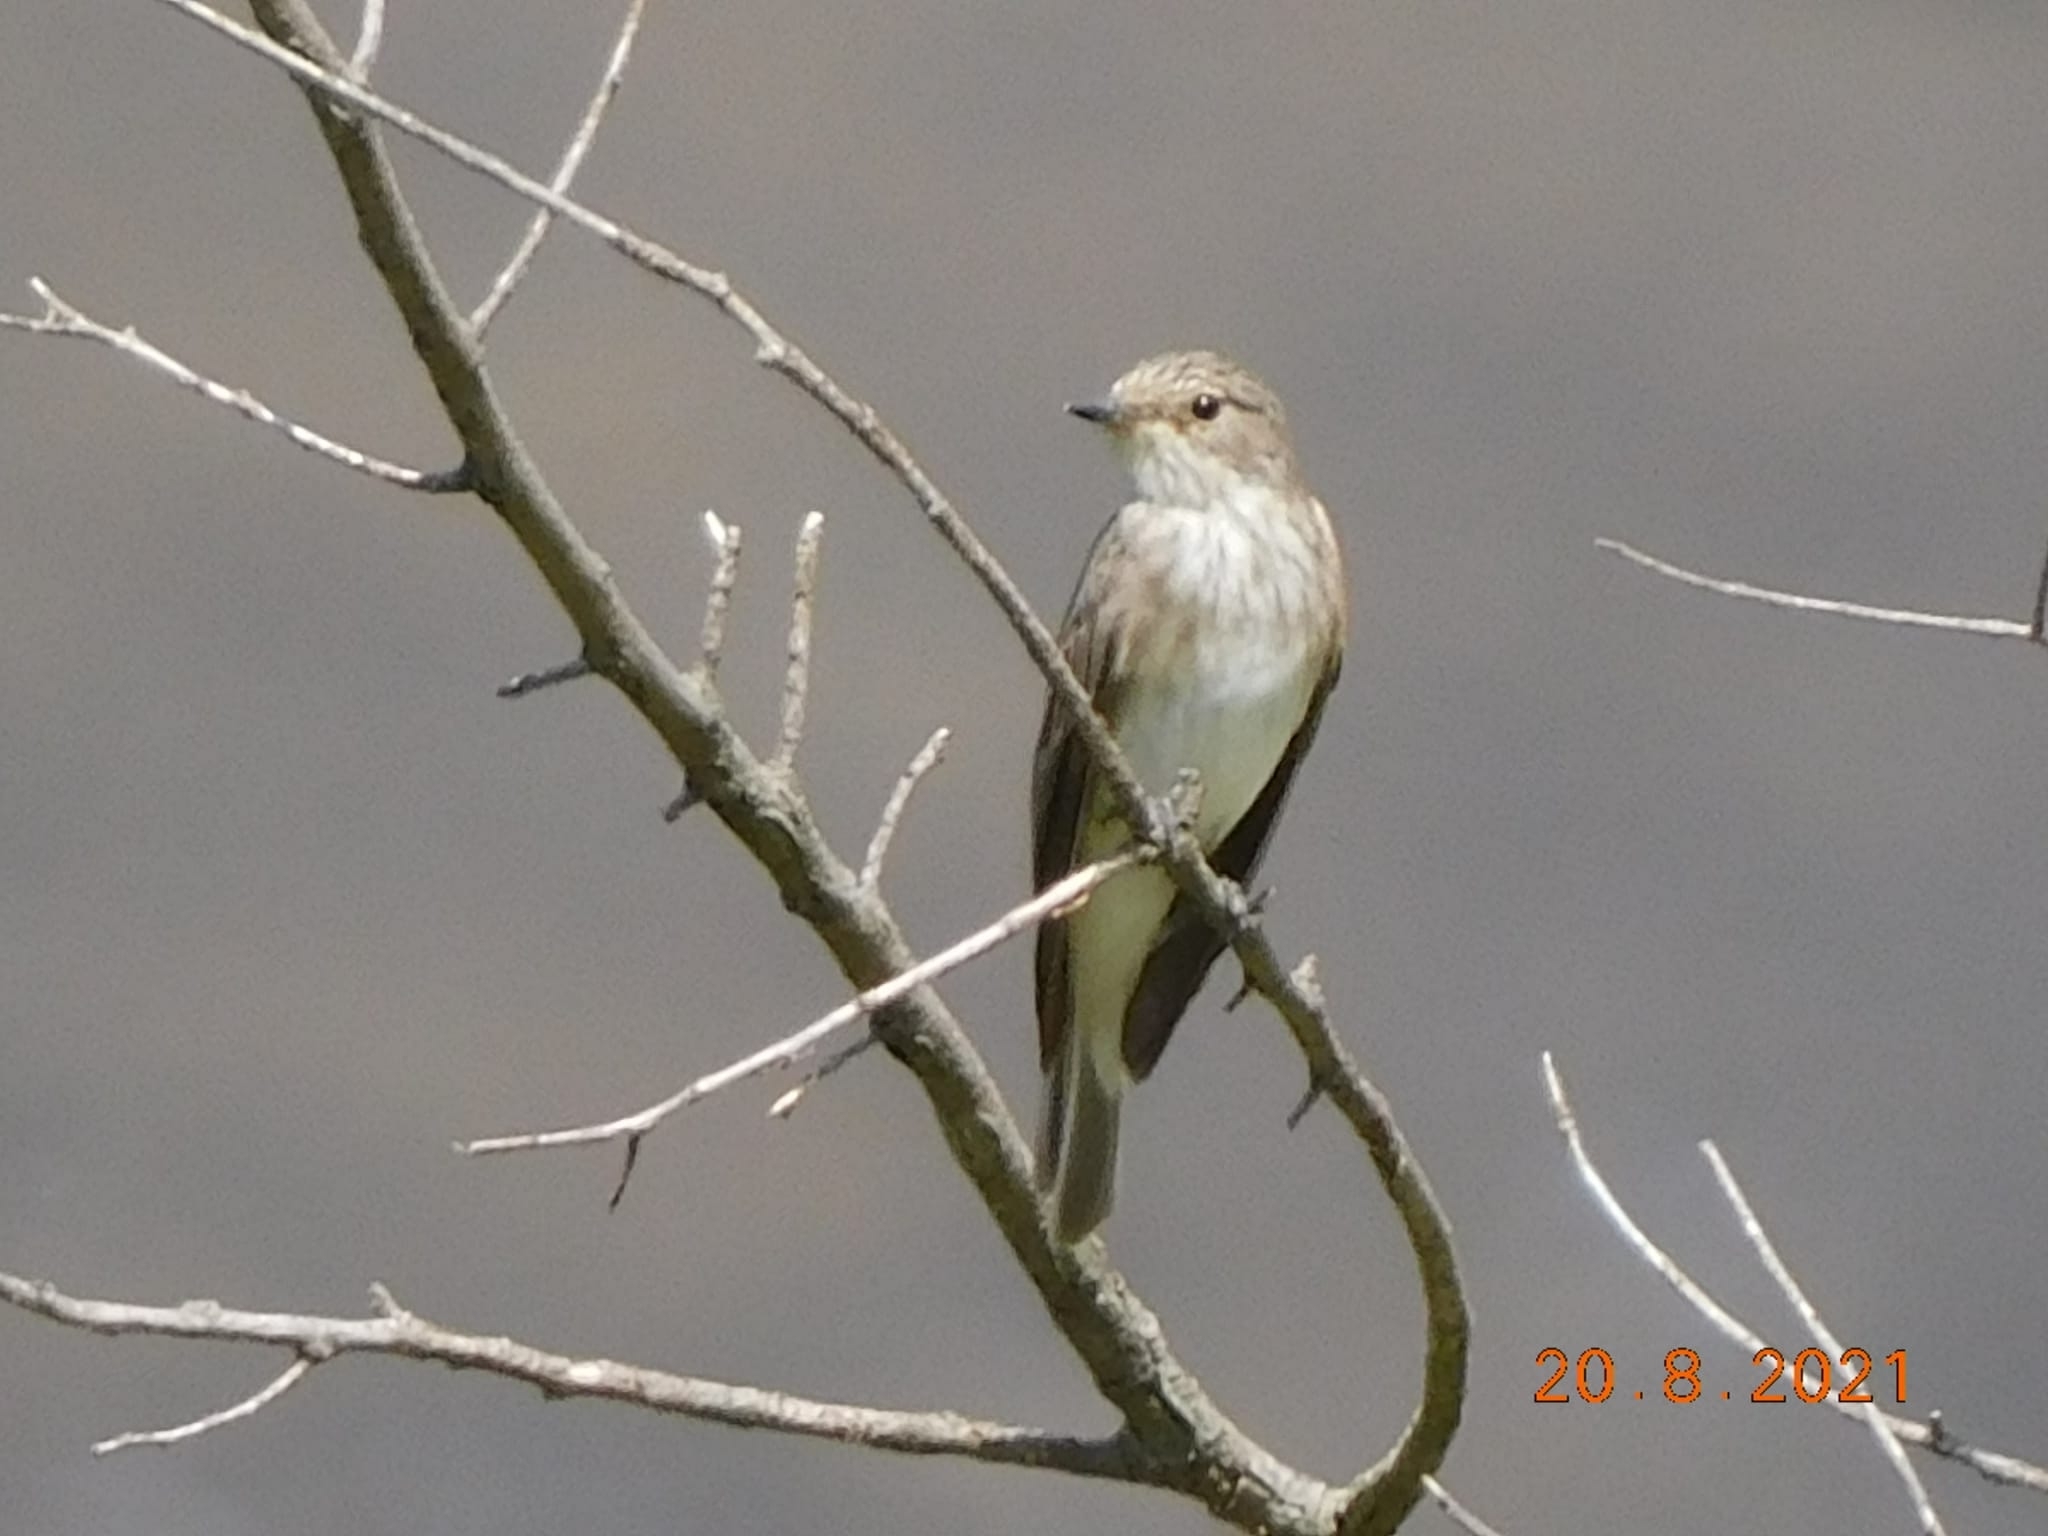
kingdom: Animalia
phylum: Chordata
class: Aves
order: Passeriformes
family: Muscicapidae
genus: Muscicapa
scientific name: Muscicapa striata
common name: Spotted flycatcher
